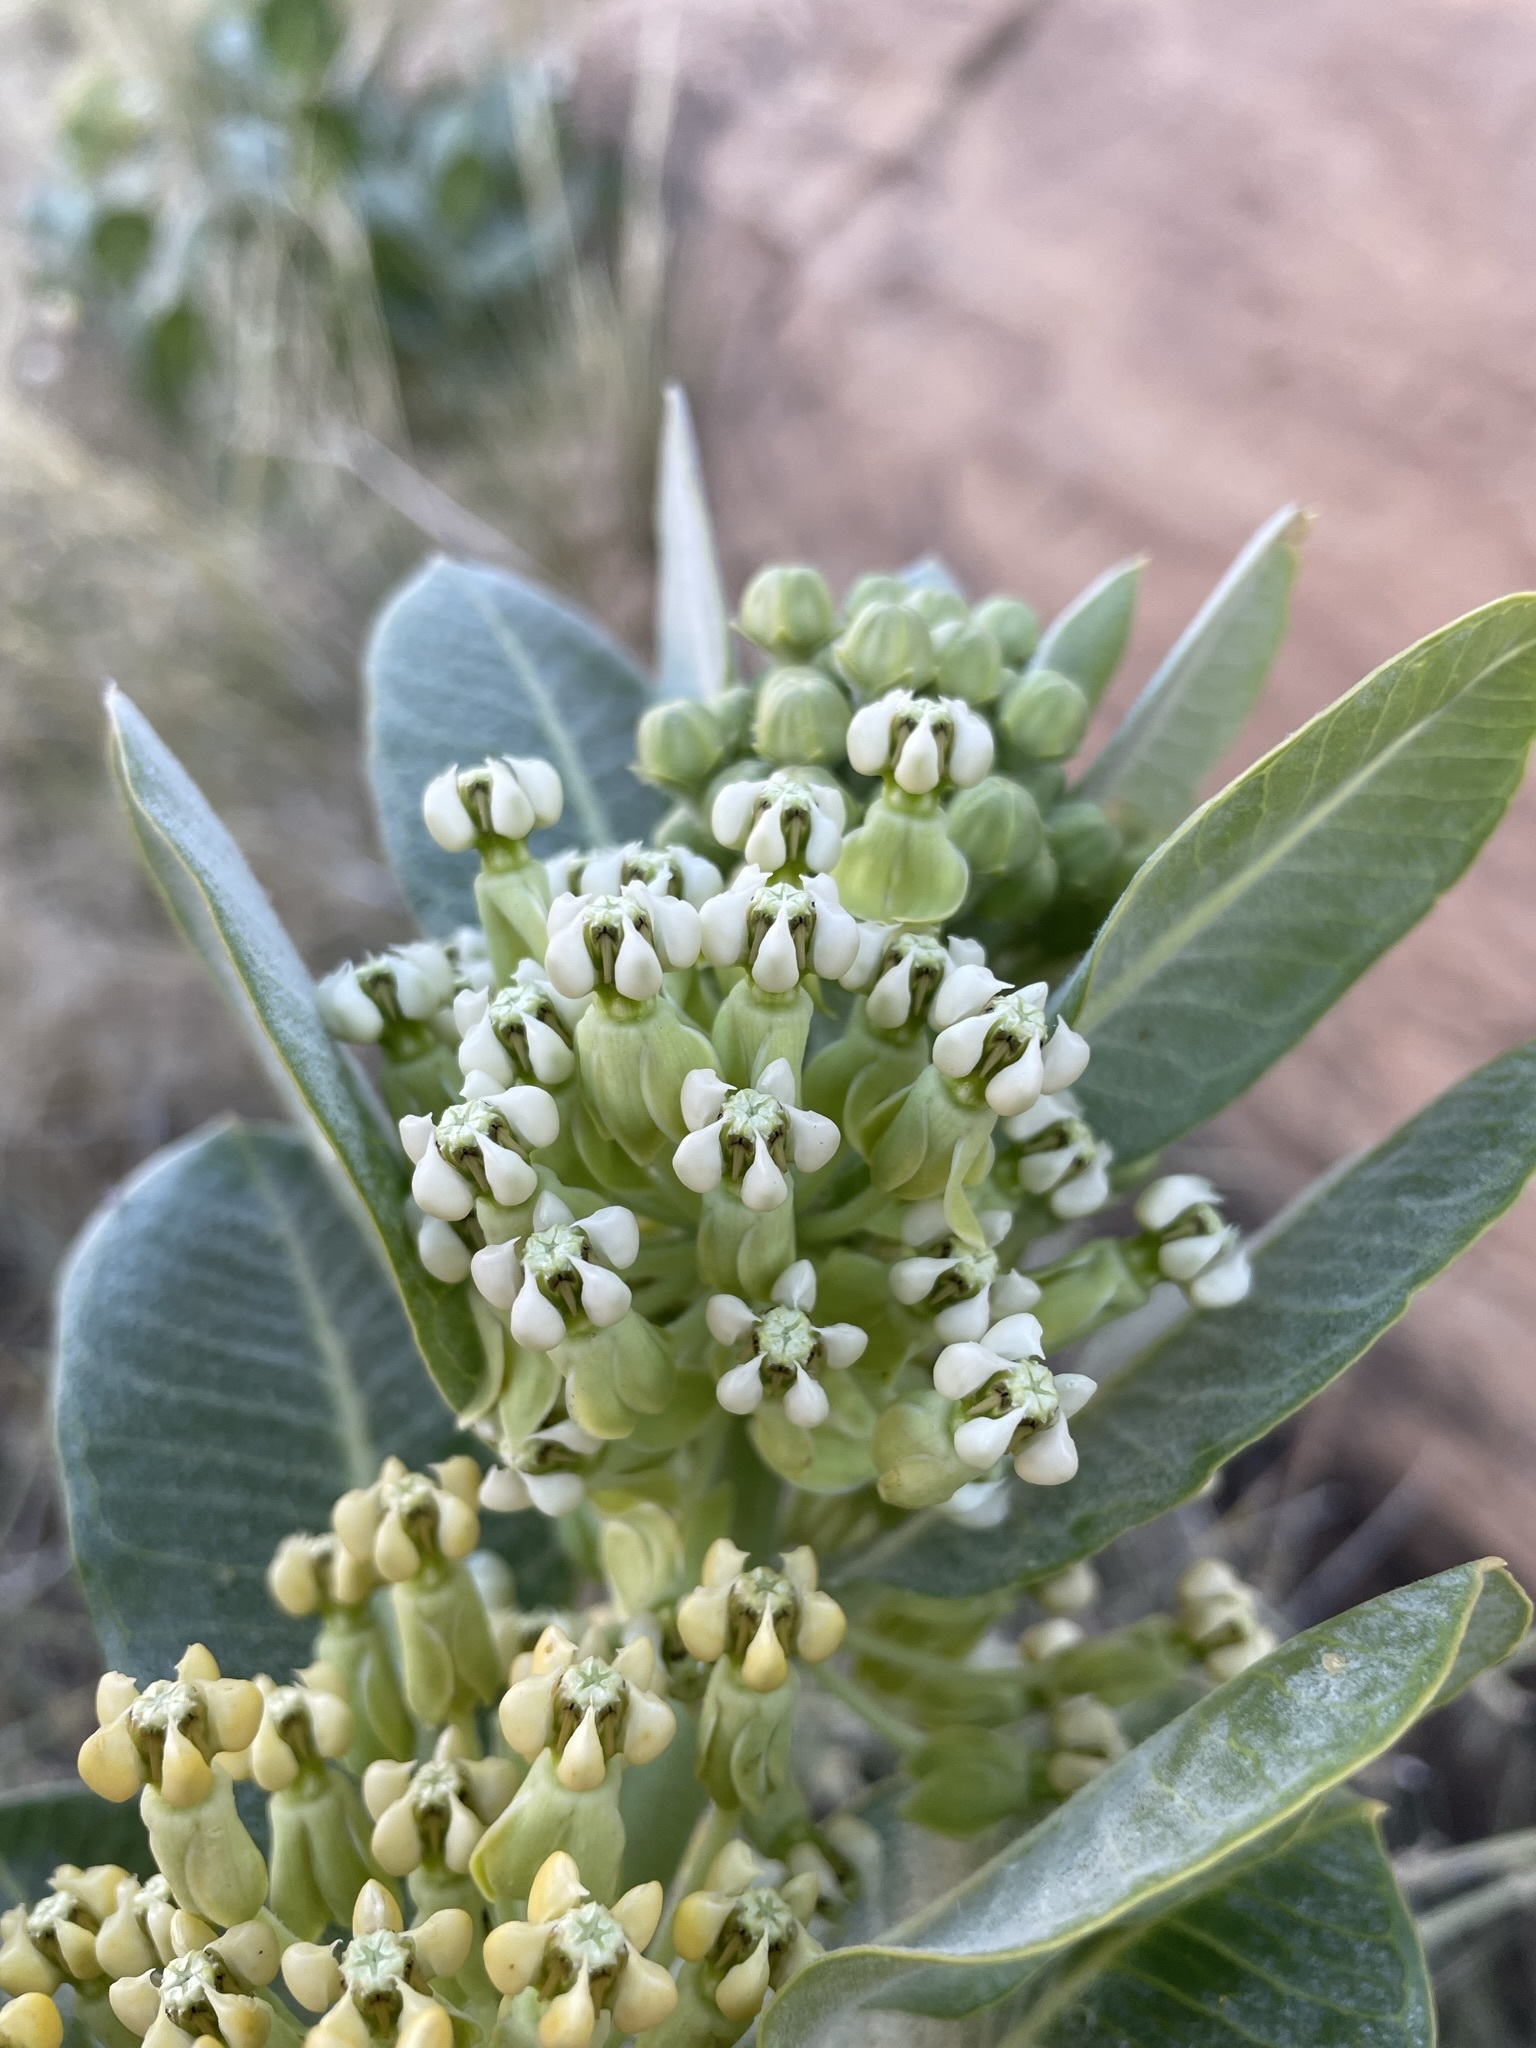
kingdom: Plantae
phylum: Tracheophyta
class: Magnoliopsida
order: Gentianales
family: Apocynaceae
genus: Asclepias
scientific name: Asclepias latifolia
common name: Broadleaf milkweed
